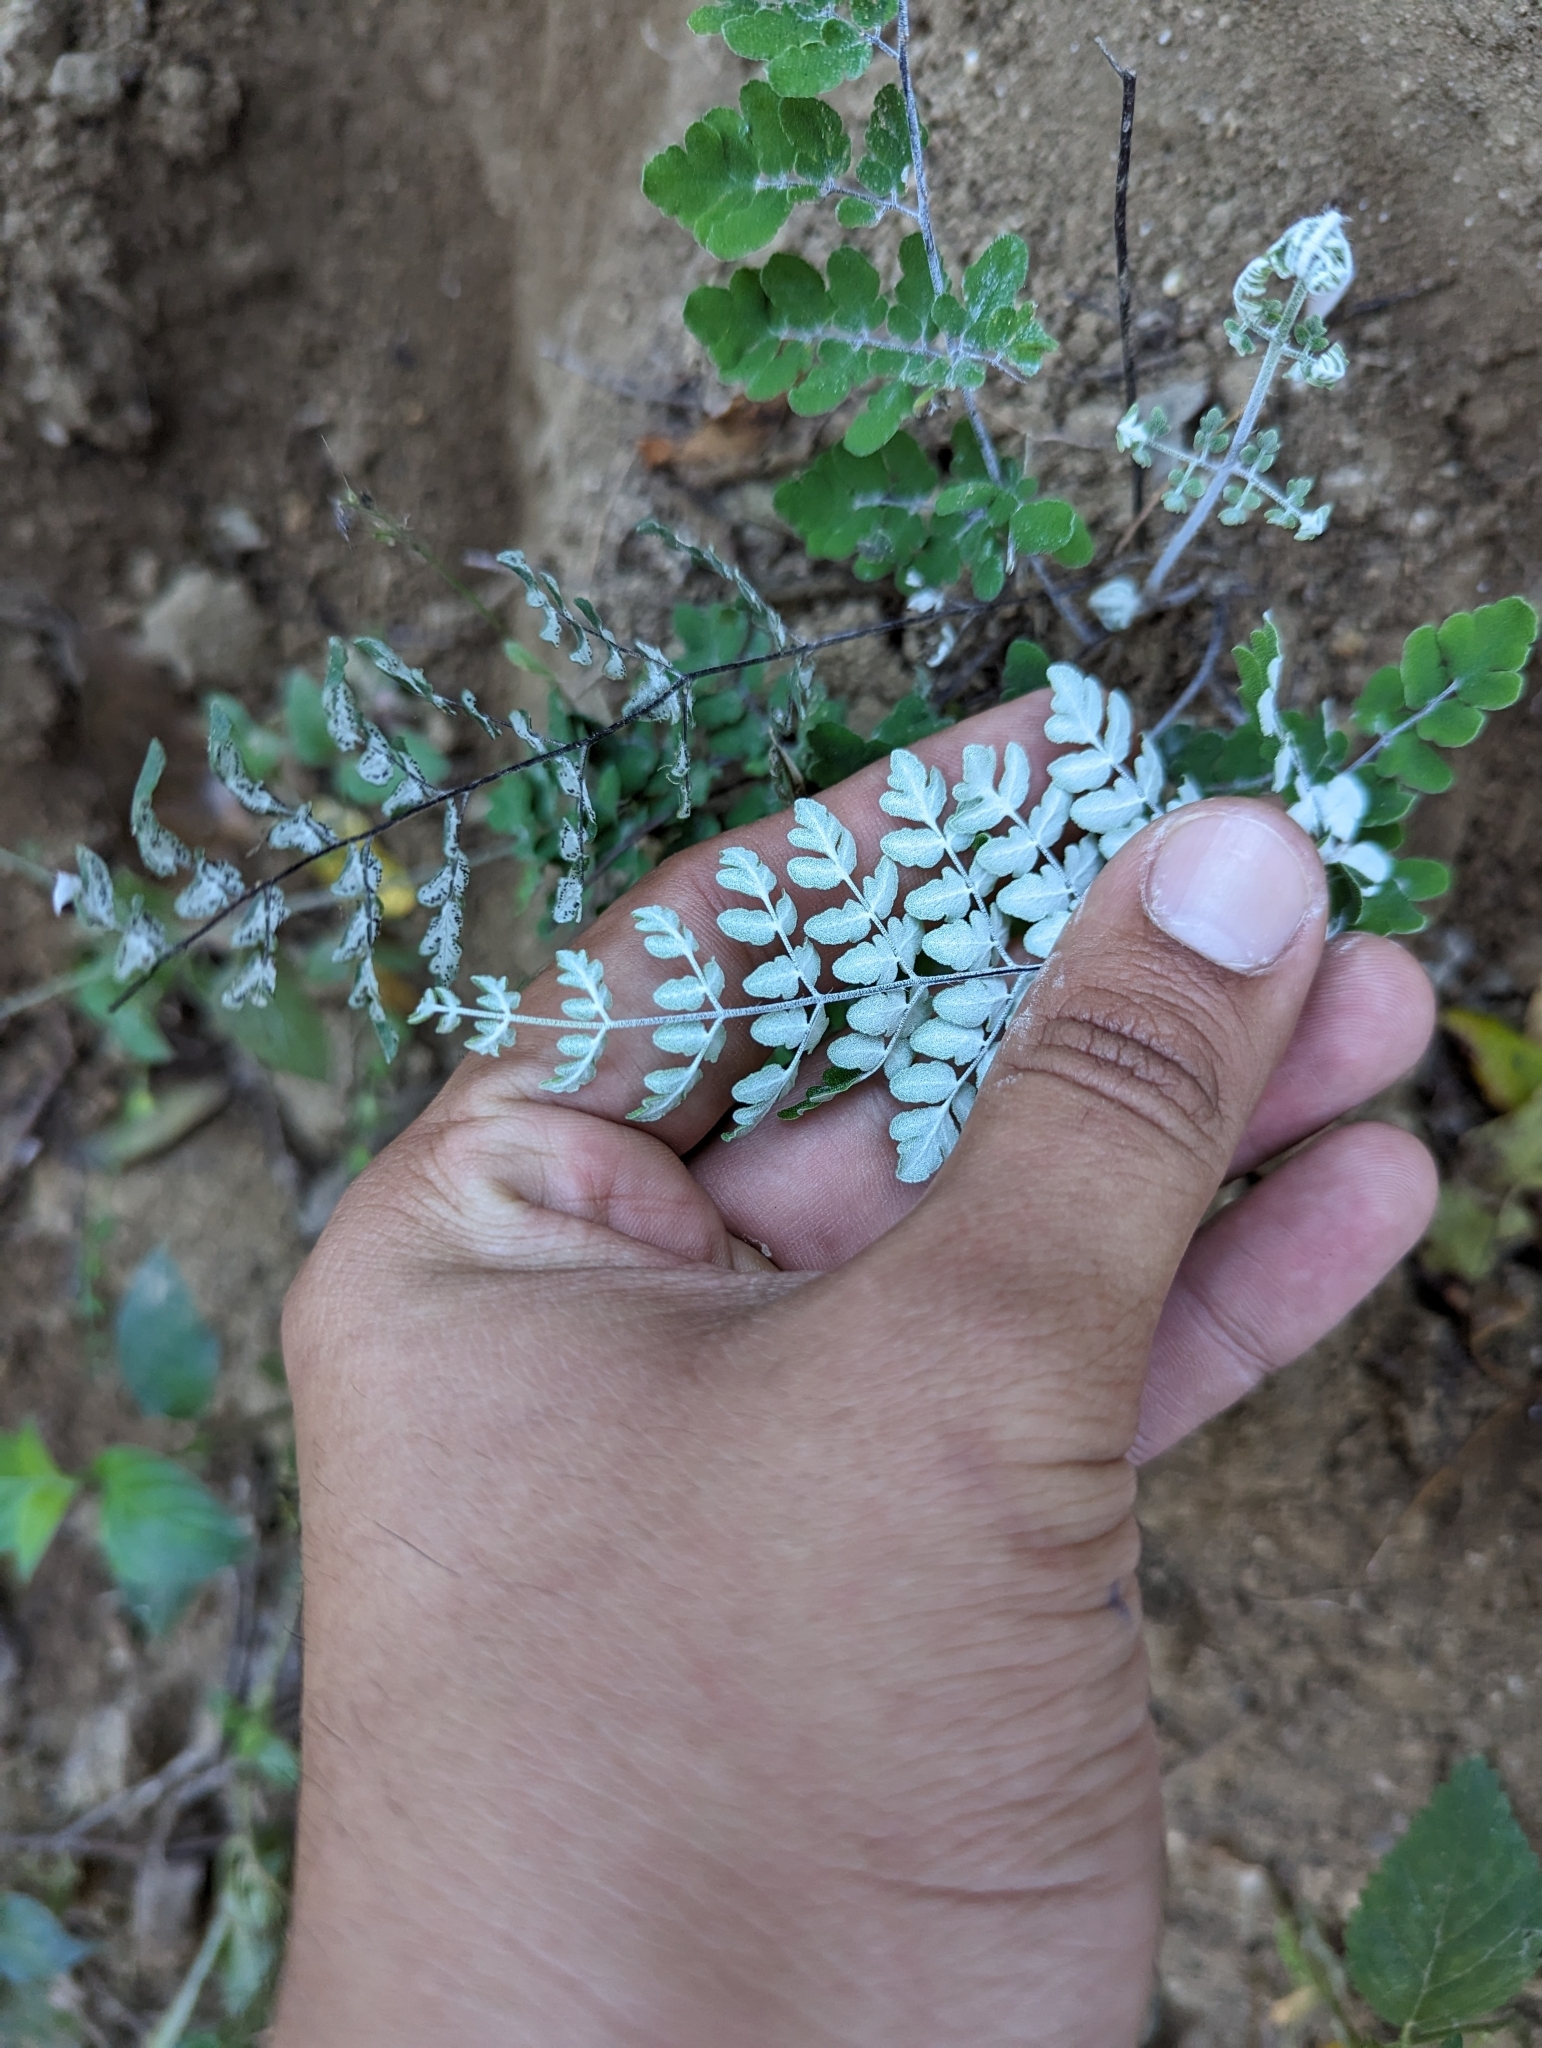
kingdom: Plantae
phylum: Tracheophyta
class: Polypodiopsida
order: Polypodiales
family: Pteridaceae
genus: Argyrochosma
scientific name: Argyrochosma peninsularis
